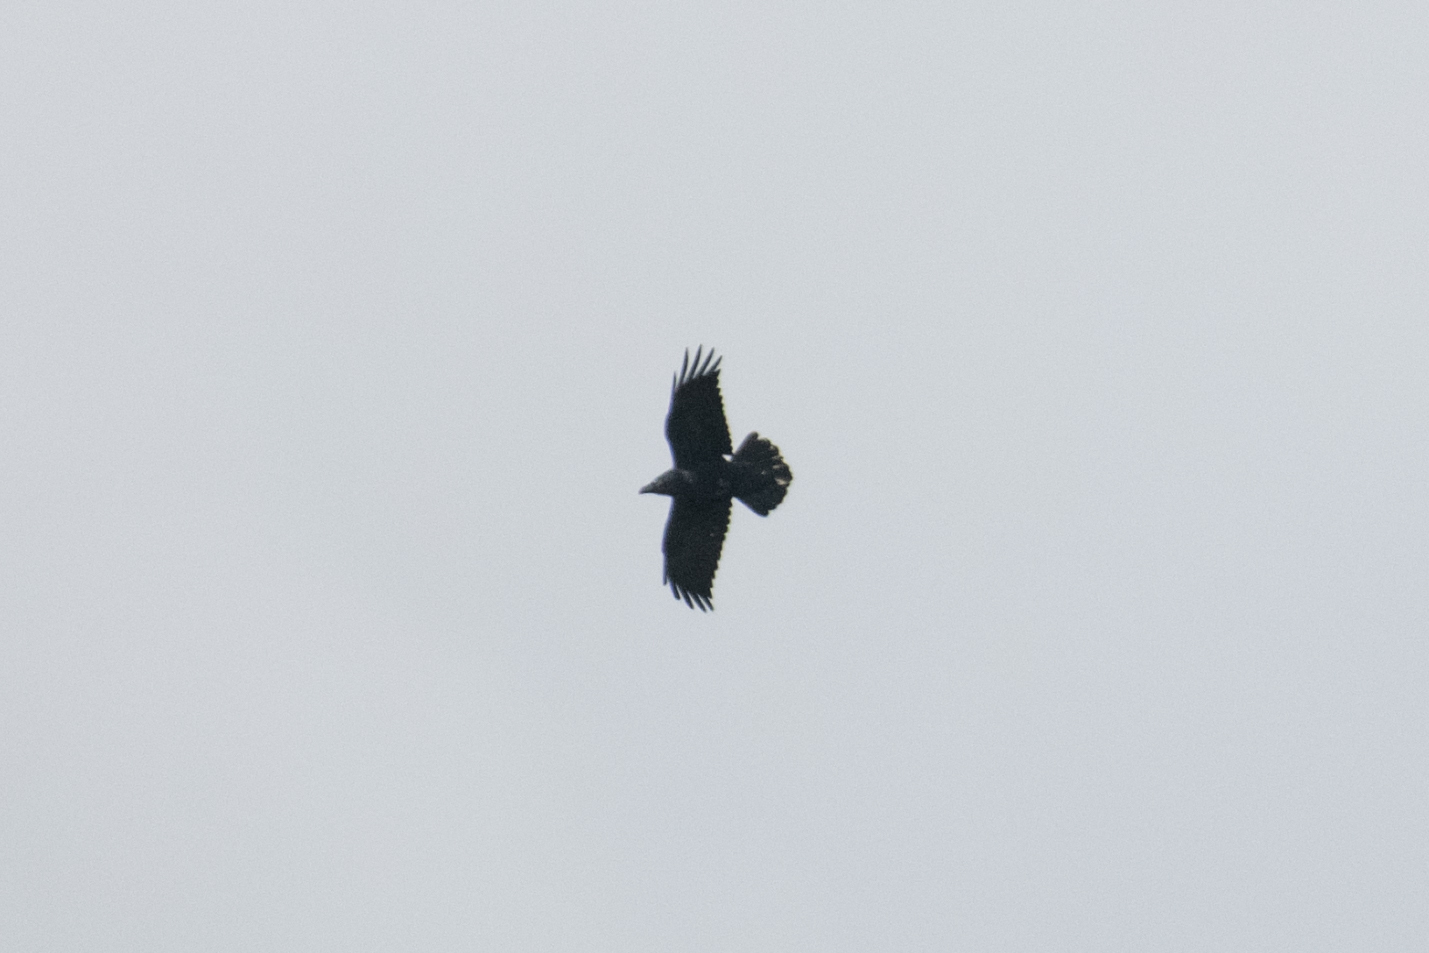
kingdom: Animalia
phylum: Chordata
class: Aves
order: Passeriformes
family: Corvidae
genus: Corvus
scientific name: Corvus corax
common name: Common raven
